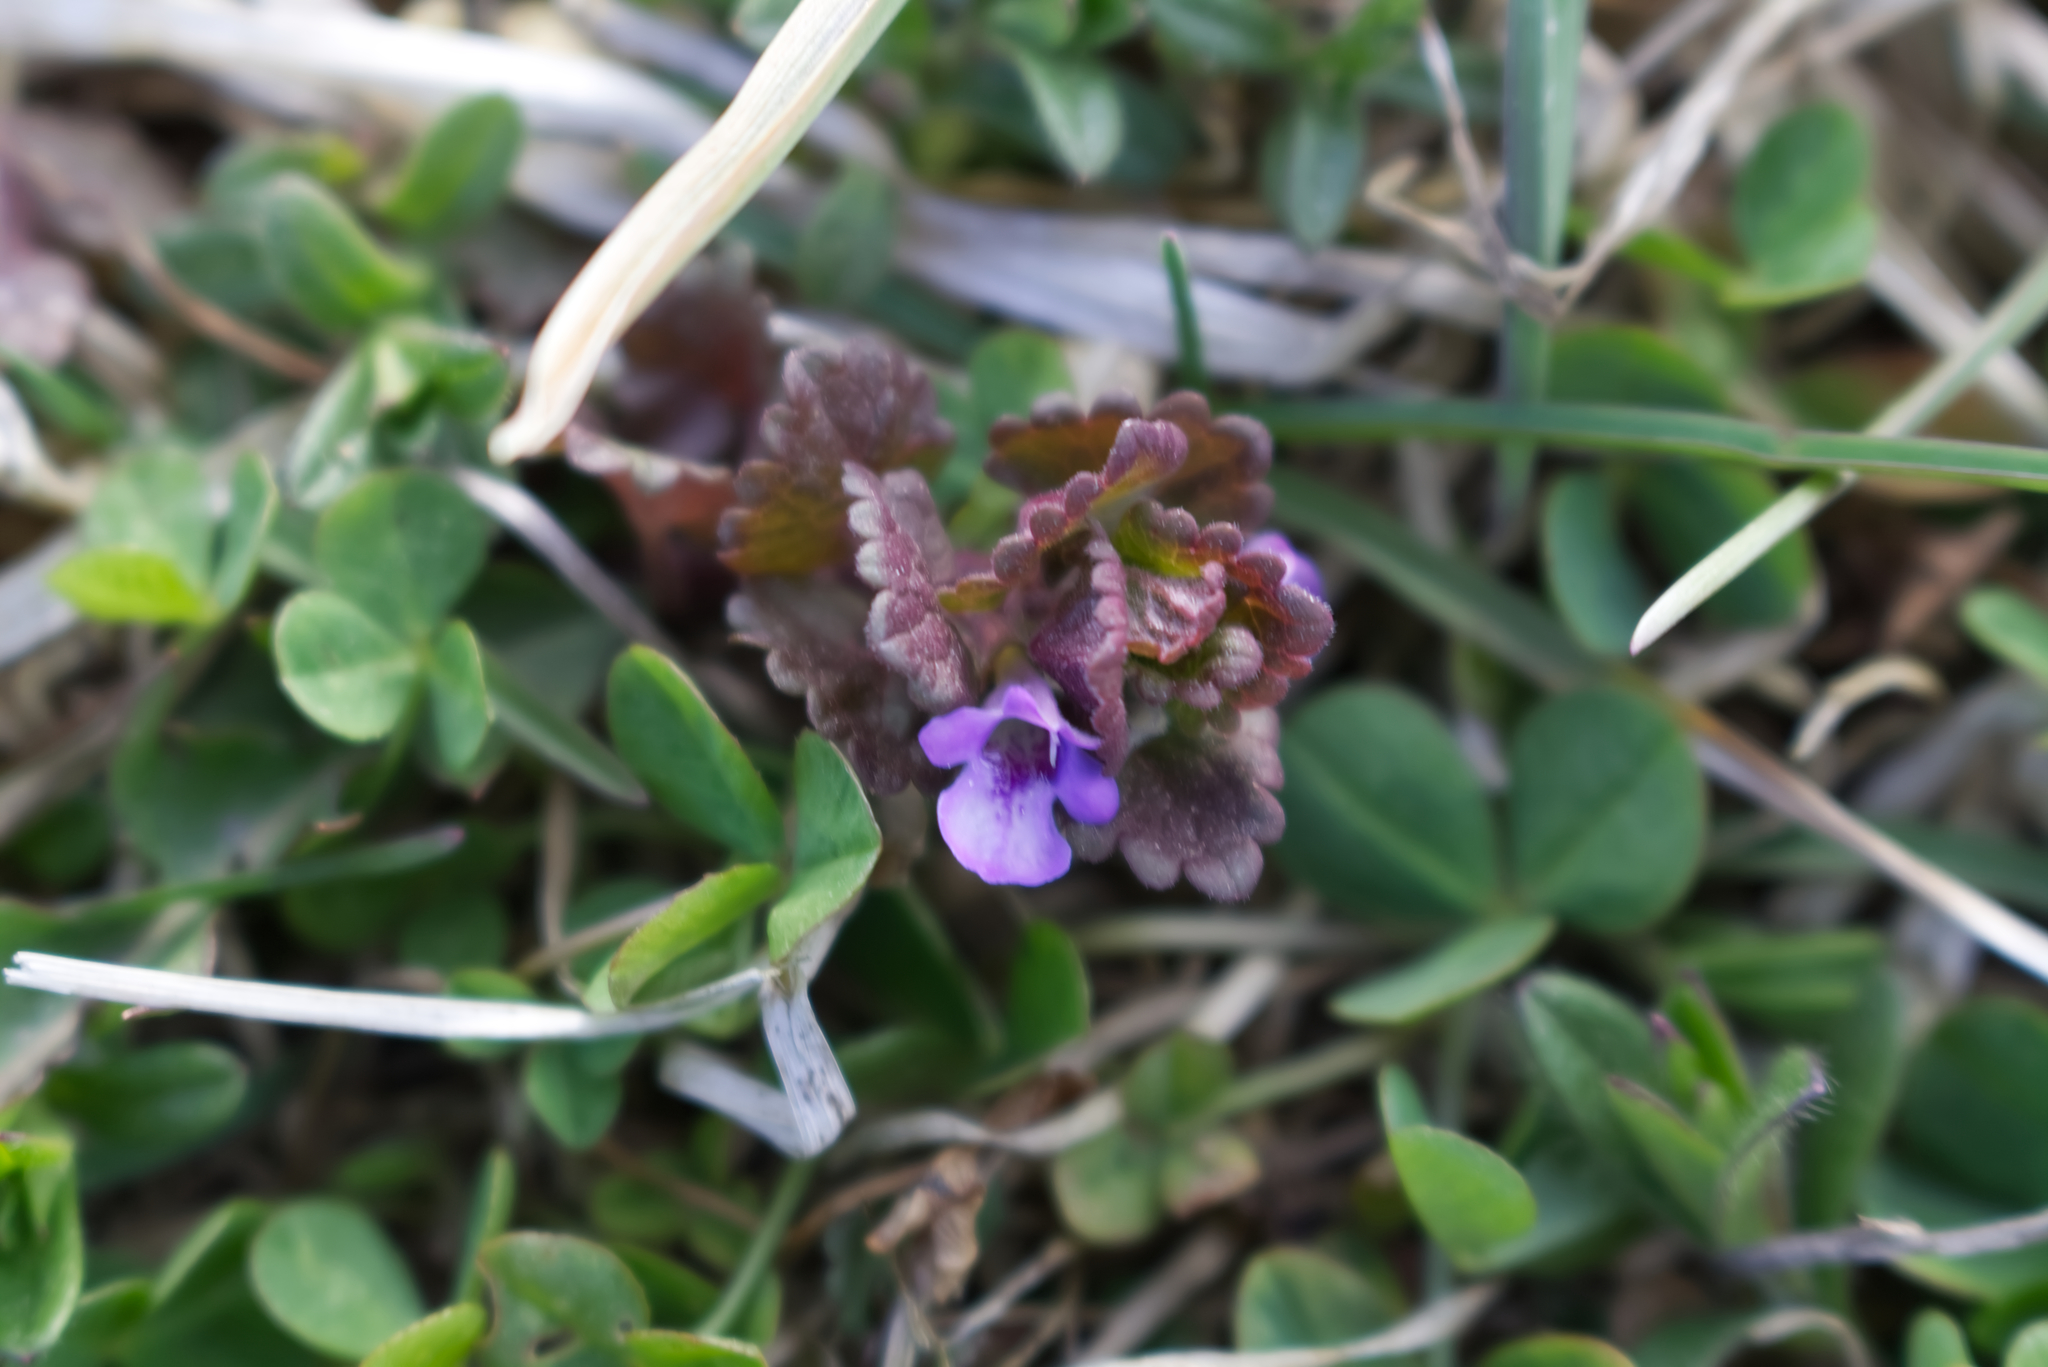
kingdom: Plantae
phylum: Tracheophyta
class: Magnoliopsida
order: Lamiales
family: Lamiaceae
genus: Glechoma
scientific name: Glechoma hederacea
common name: Ground ivy
